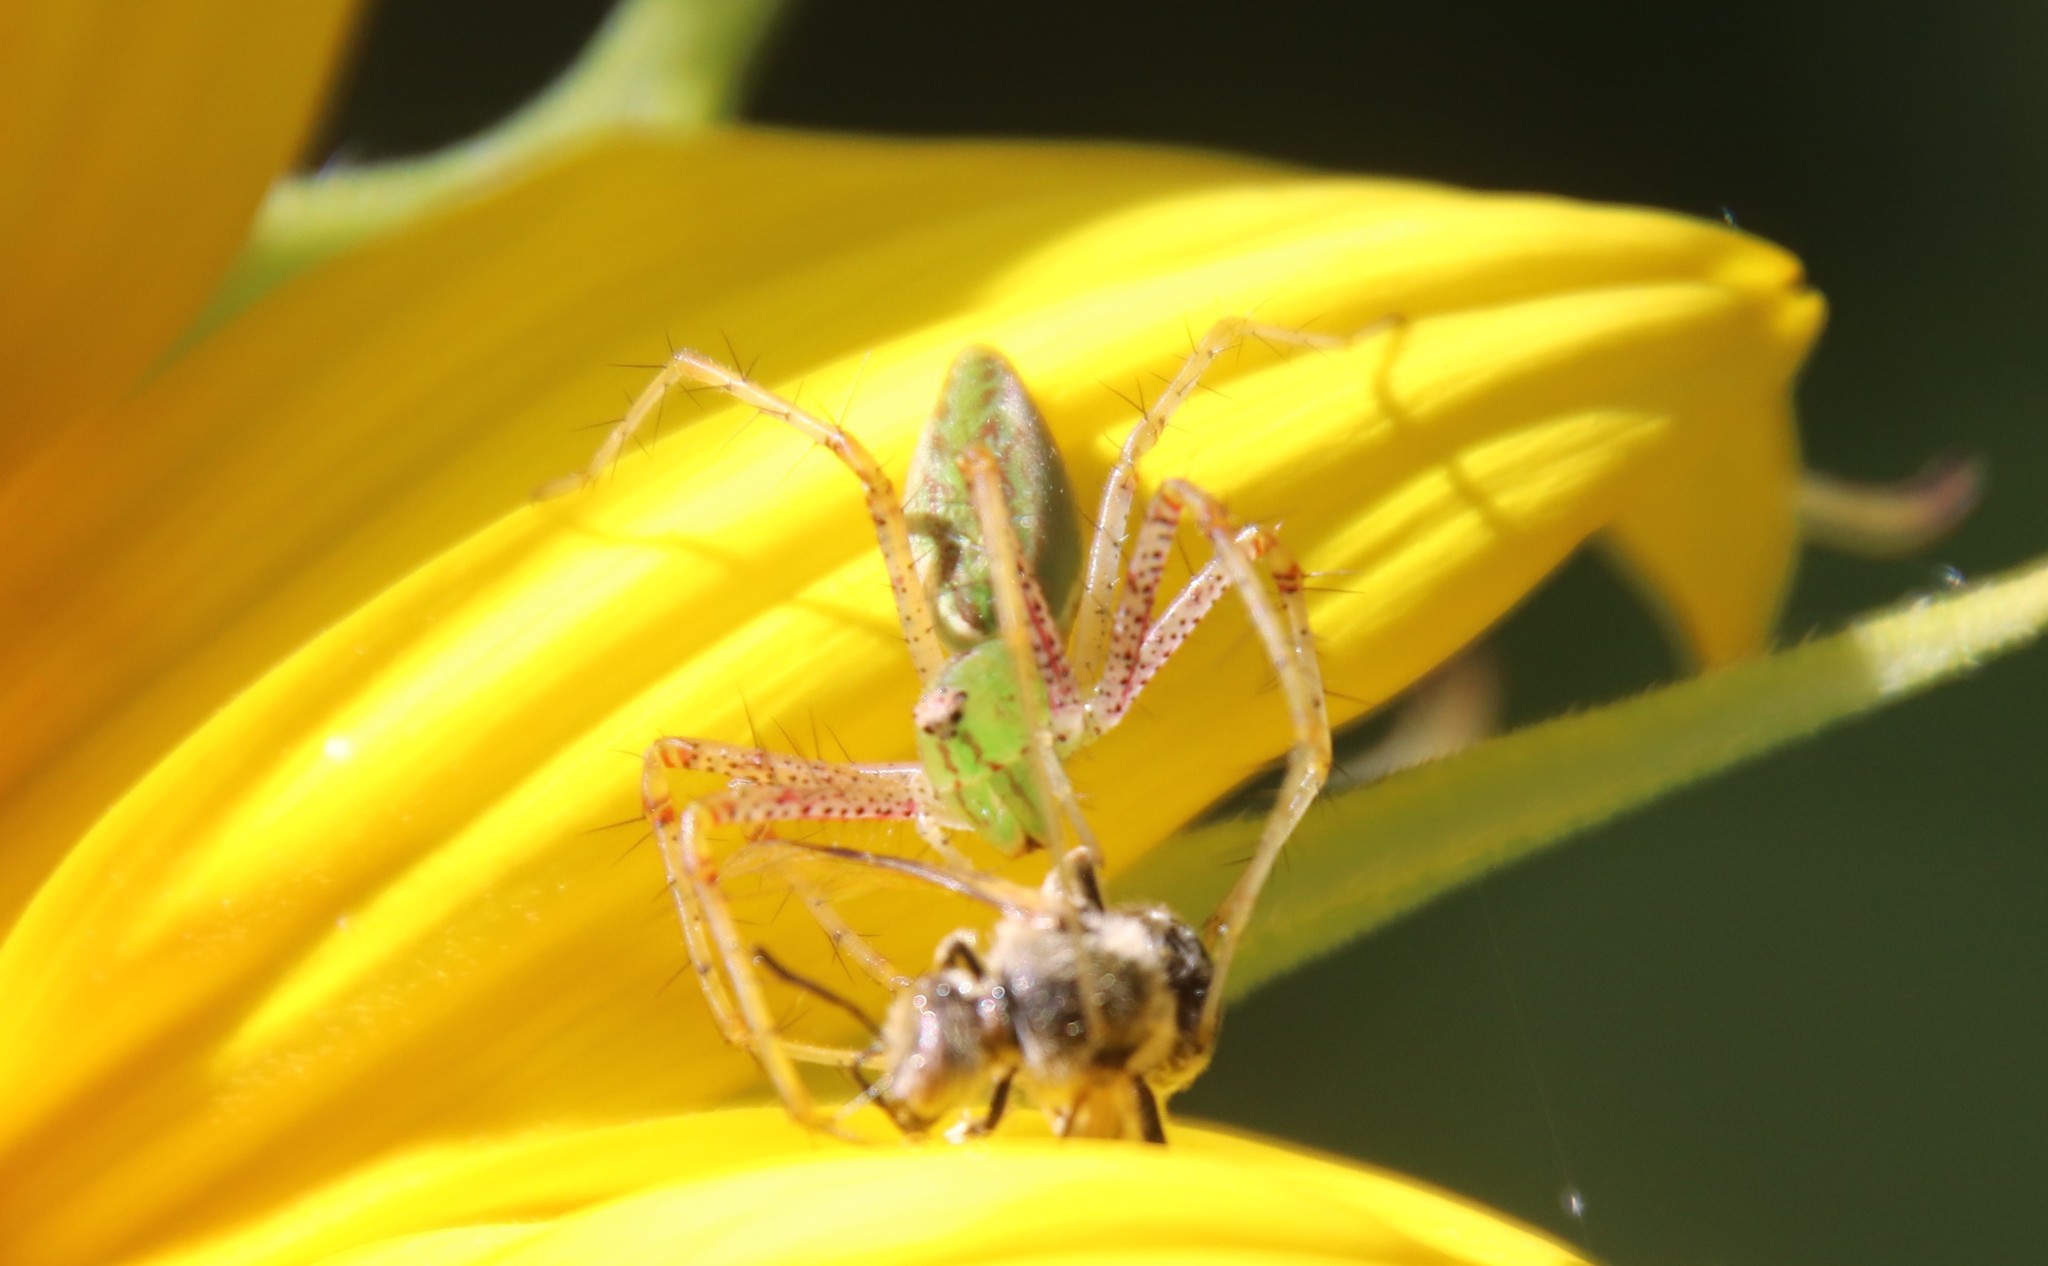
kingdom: Animalia
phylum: Arthropoda
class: Insecta
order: Hymenoptera
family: Halictidae
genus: Lasioglossum
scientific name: Lasioglossum sisymbrii
